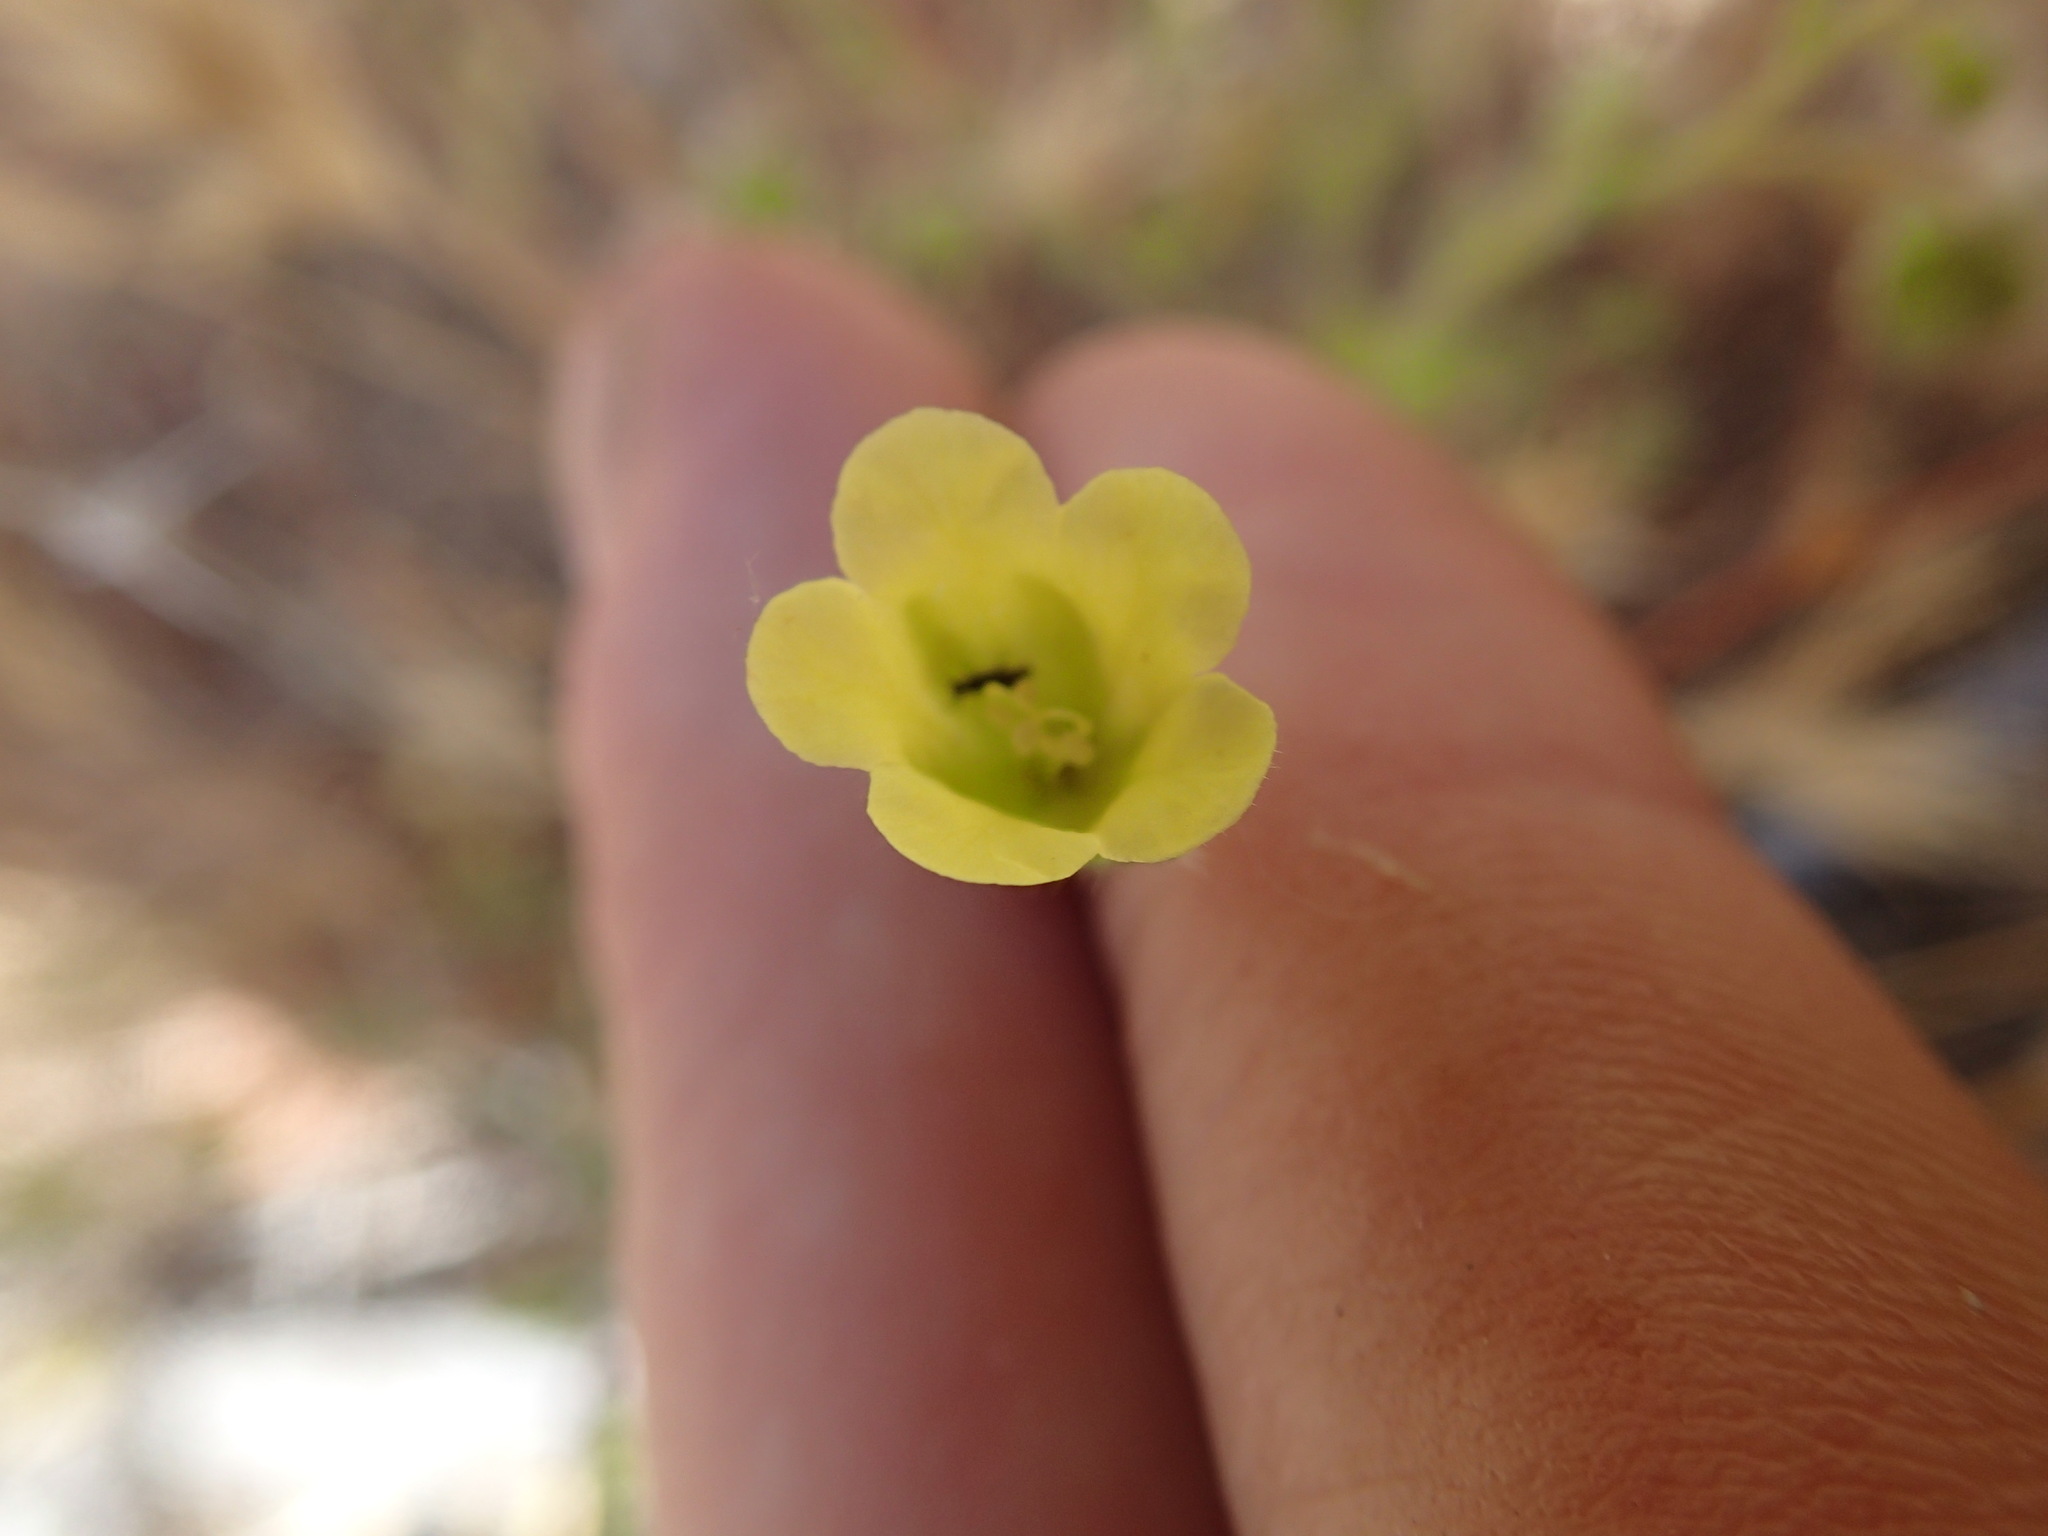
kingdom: Plantae
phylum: Tracheophyta
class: Magnoliopsida
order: Boraginales
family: Hydrophyllaceae
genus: Emmenanthe
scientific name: Emmenanthe penduliflora
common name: Whispering-bells
